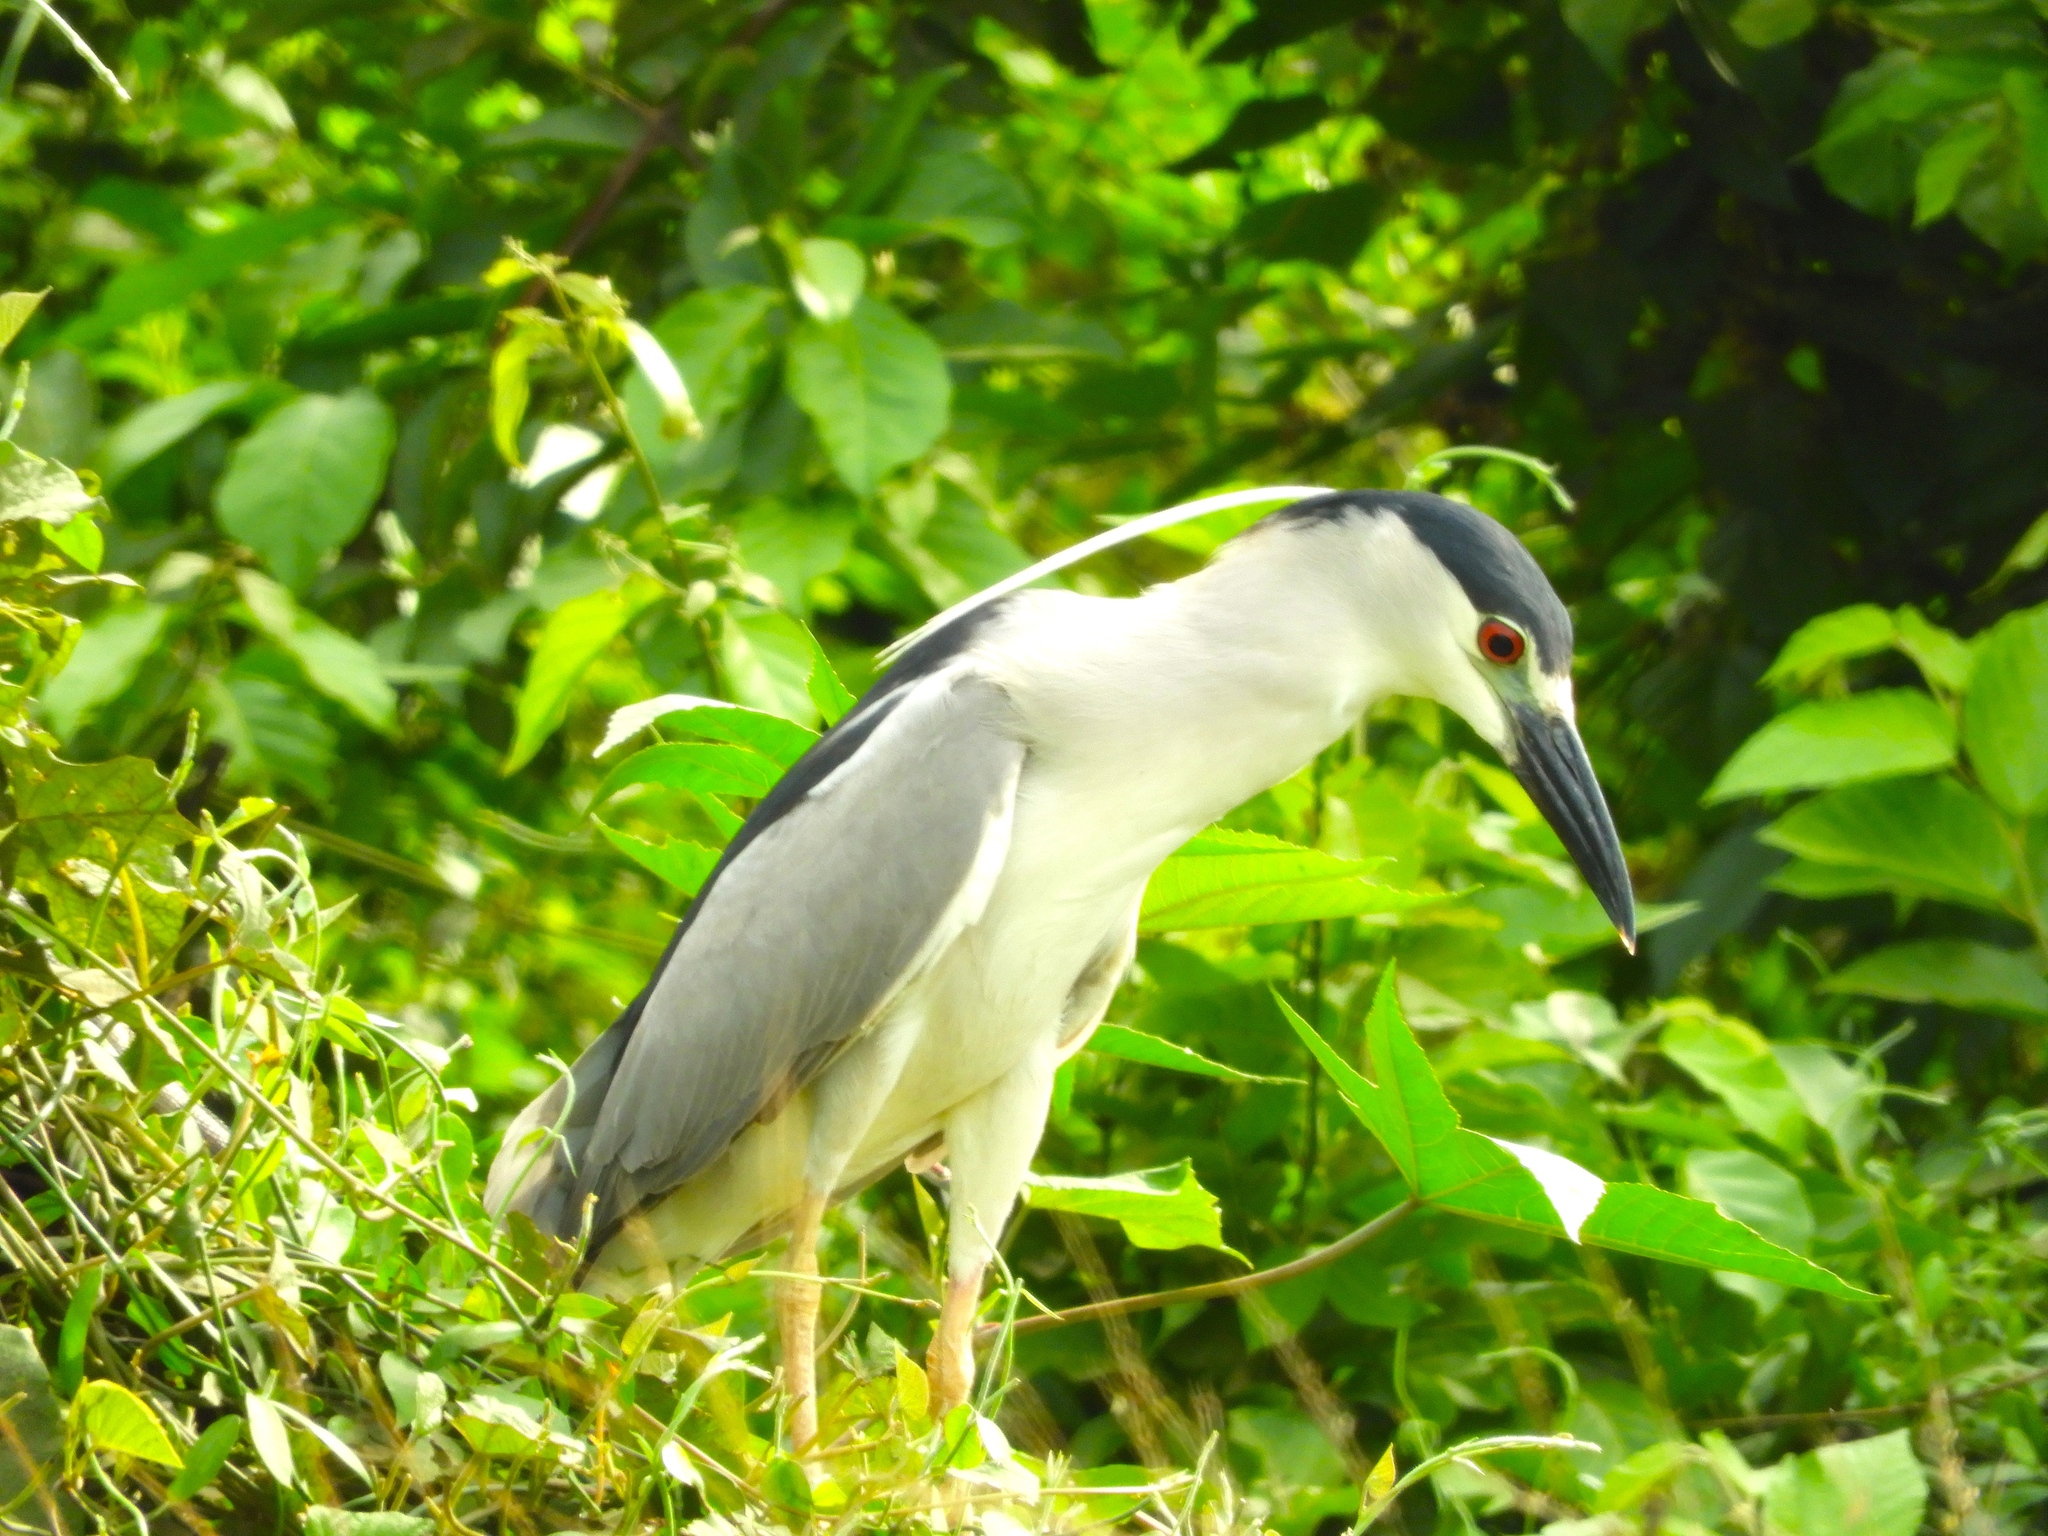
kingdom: Animalia
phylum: Chordata
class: Aves
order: Pelecaniformes
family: Ardeidae
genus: Nycticorax
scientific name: Nycticorax nycticorax
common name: Black-crowned night heron
